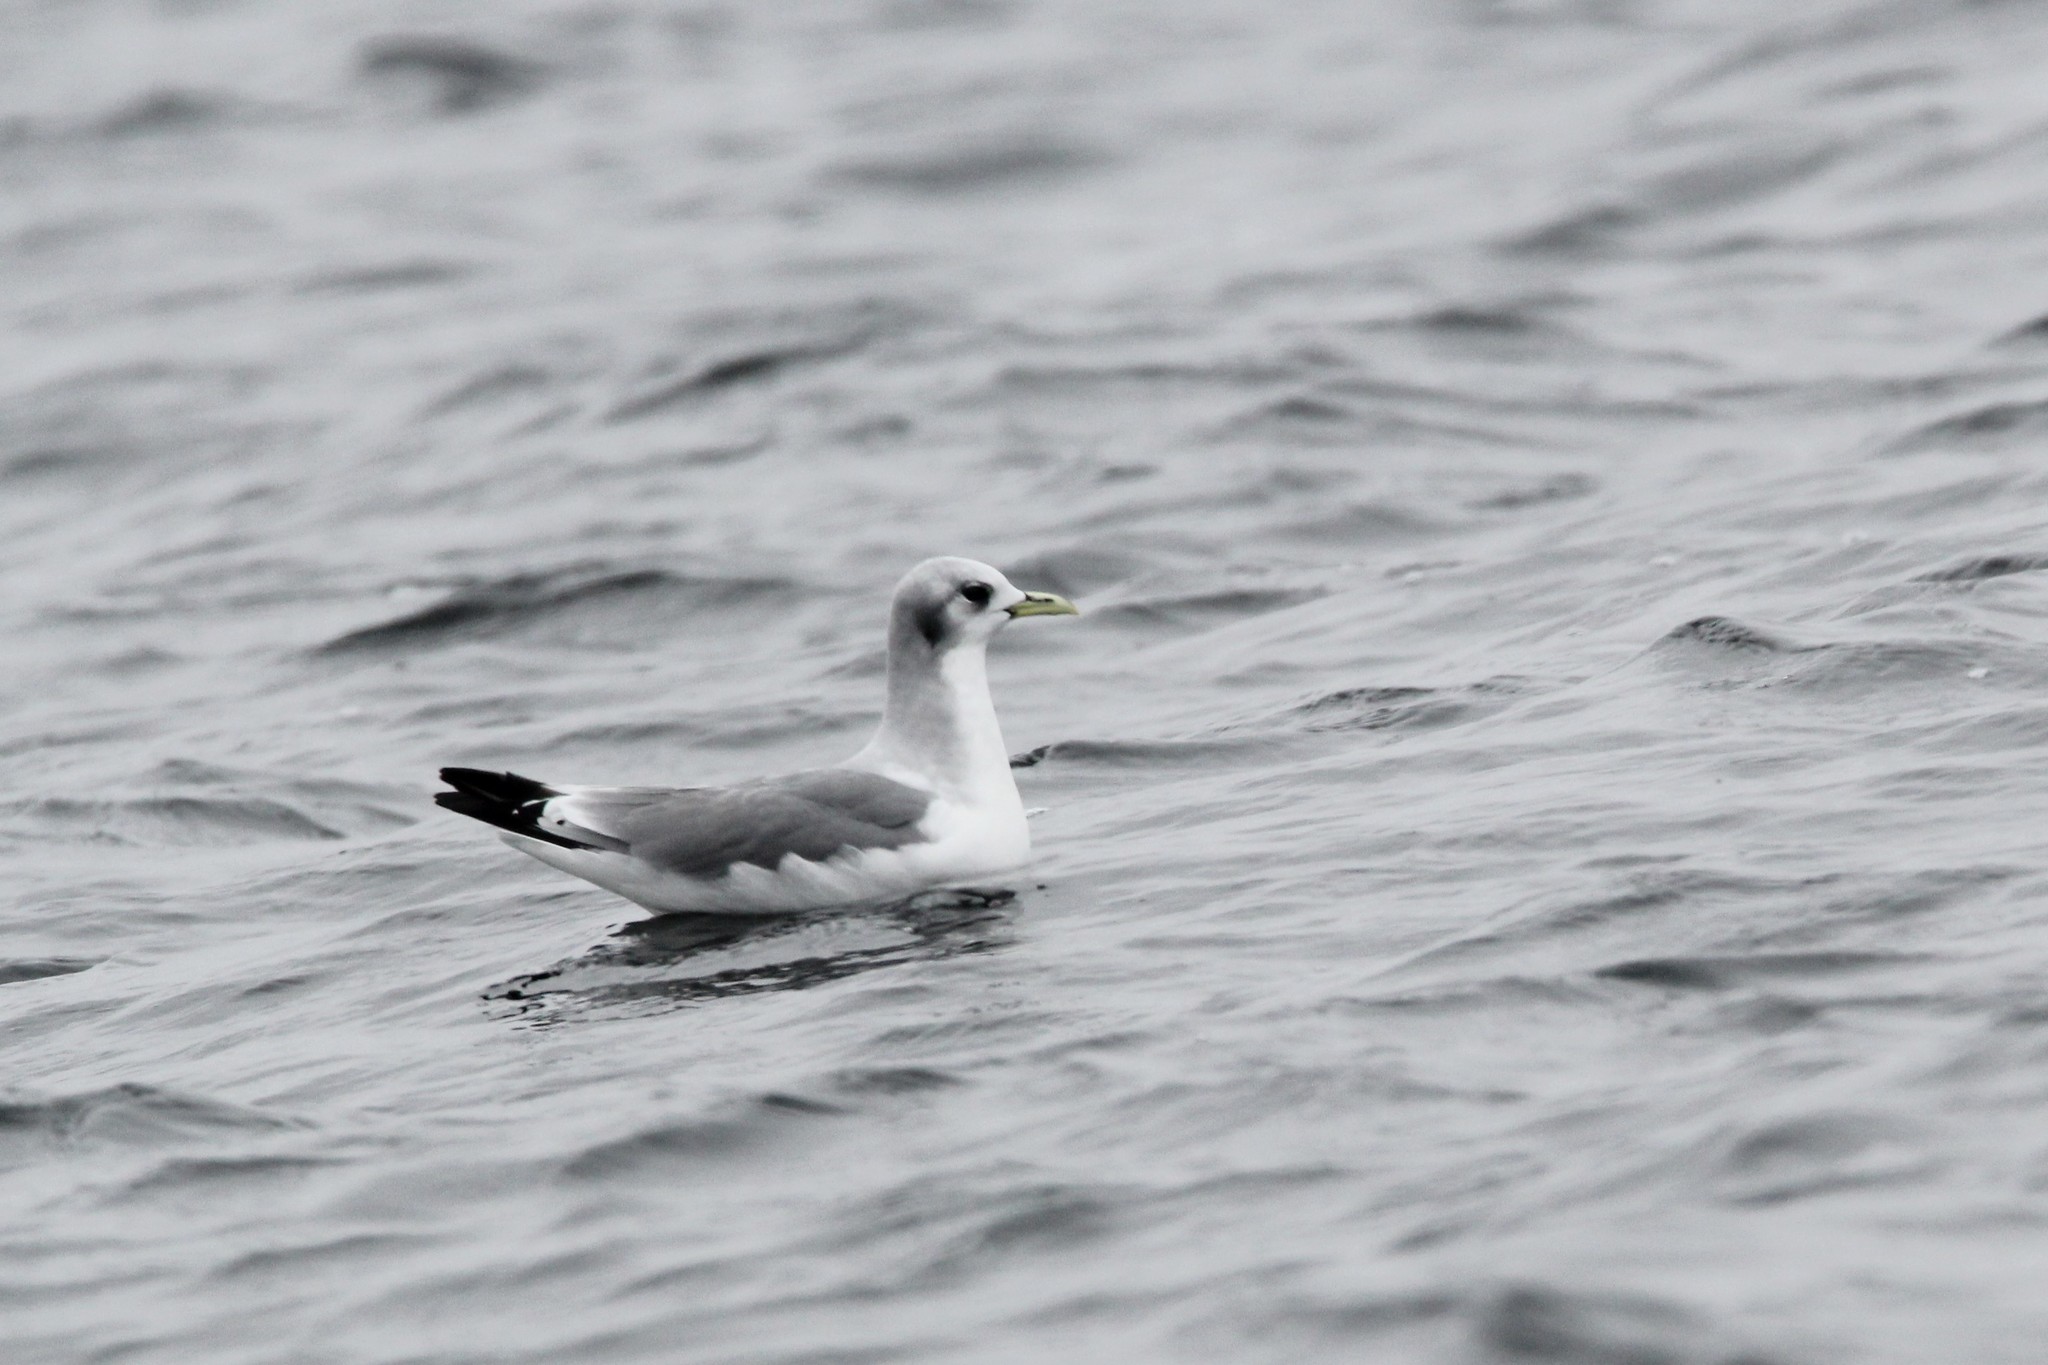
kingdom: Animalia
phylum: Chordata
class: Aves
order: Charadriiformes
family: Laridae
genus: Rissa
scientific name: Rissa tridactyla
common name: Black-legged kittiwake
